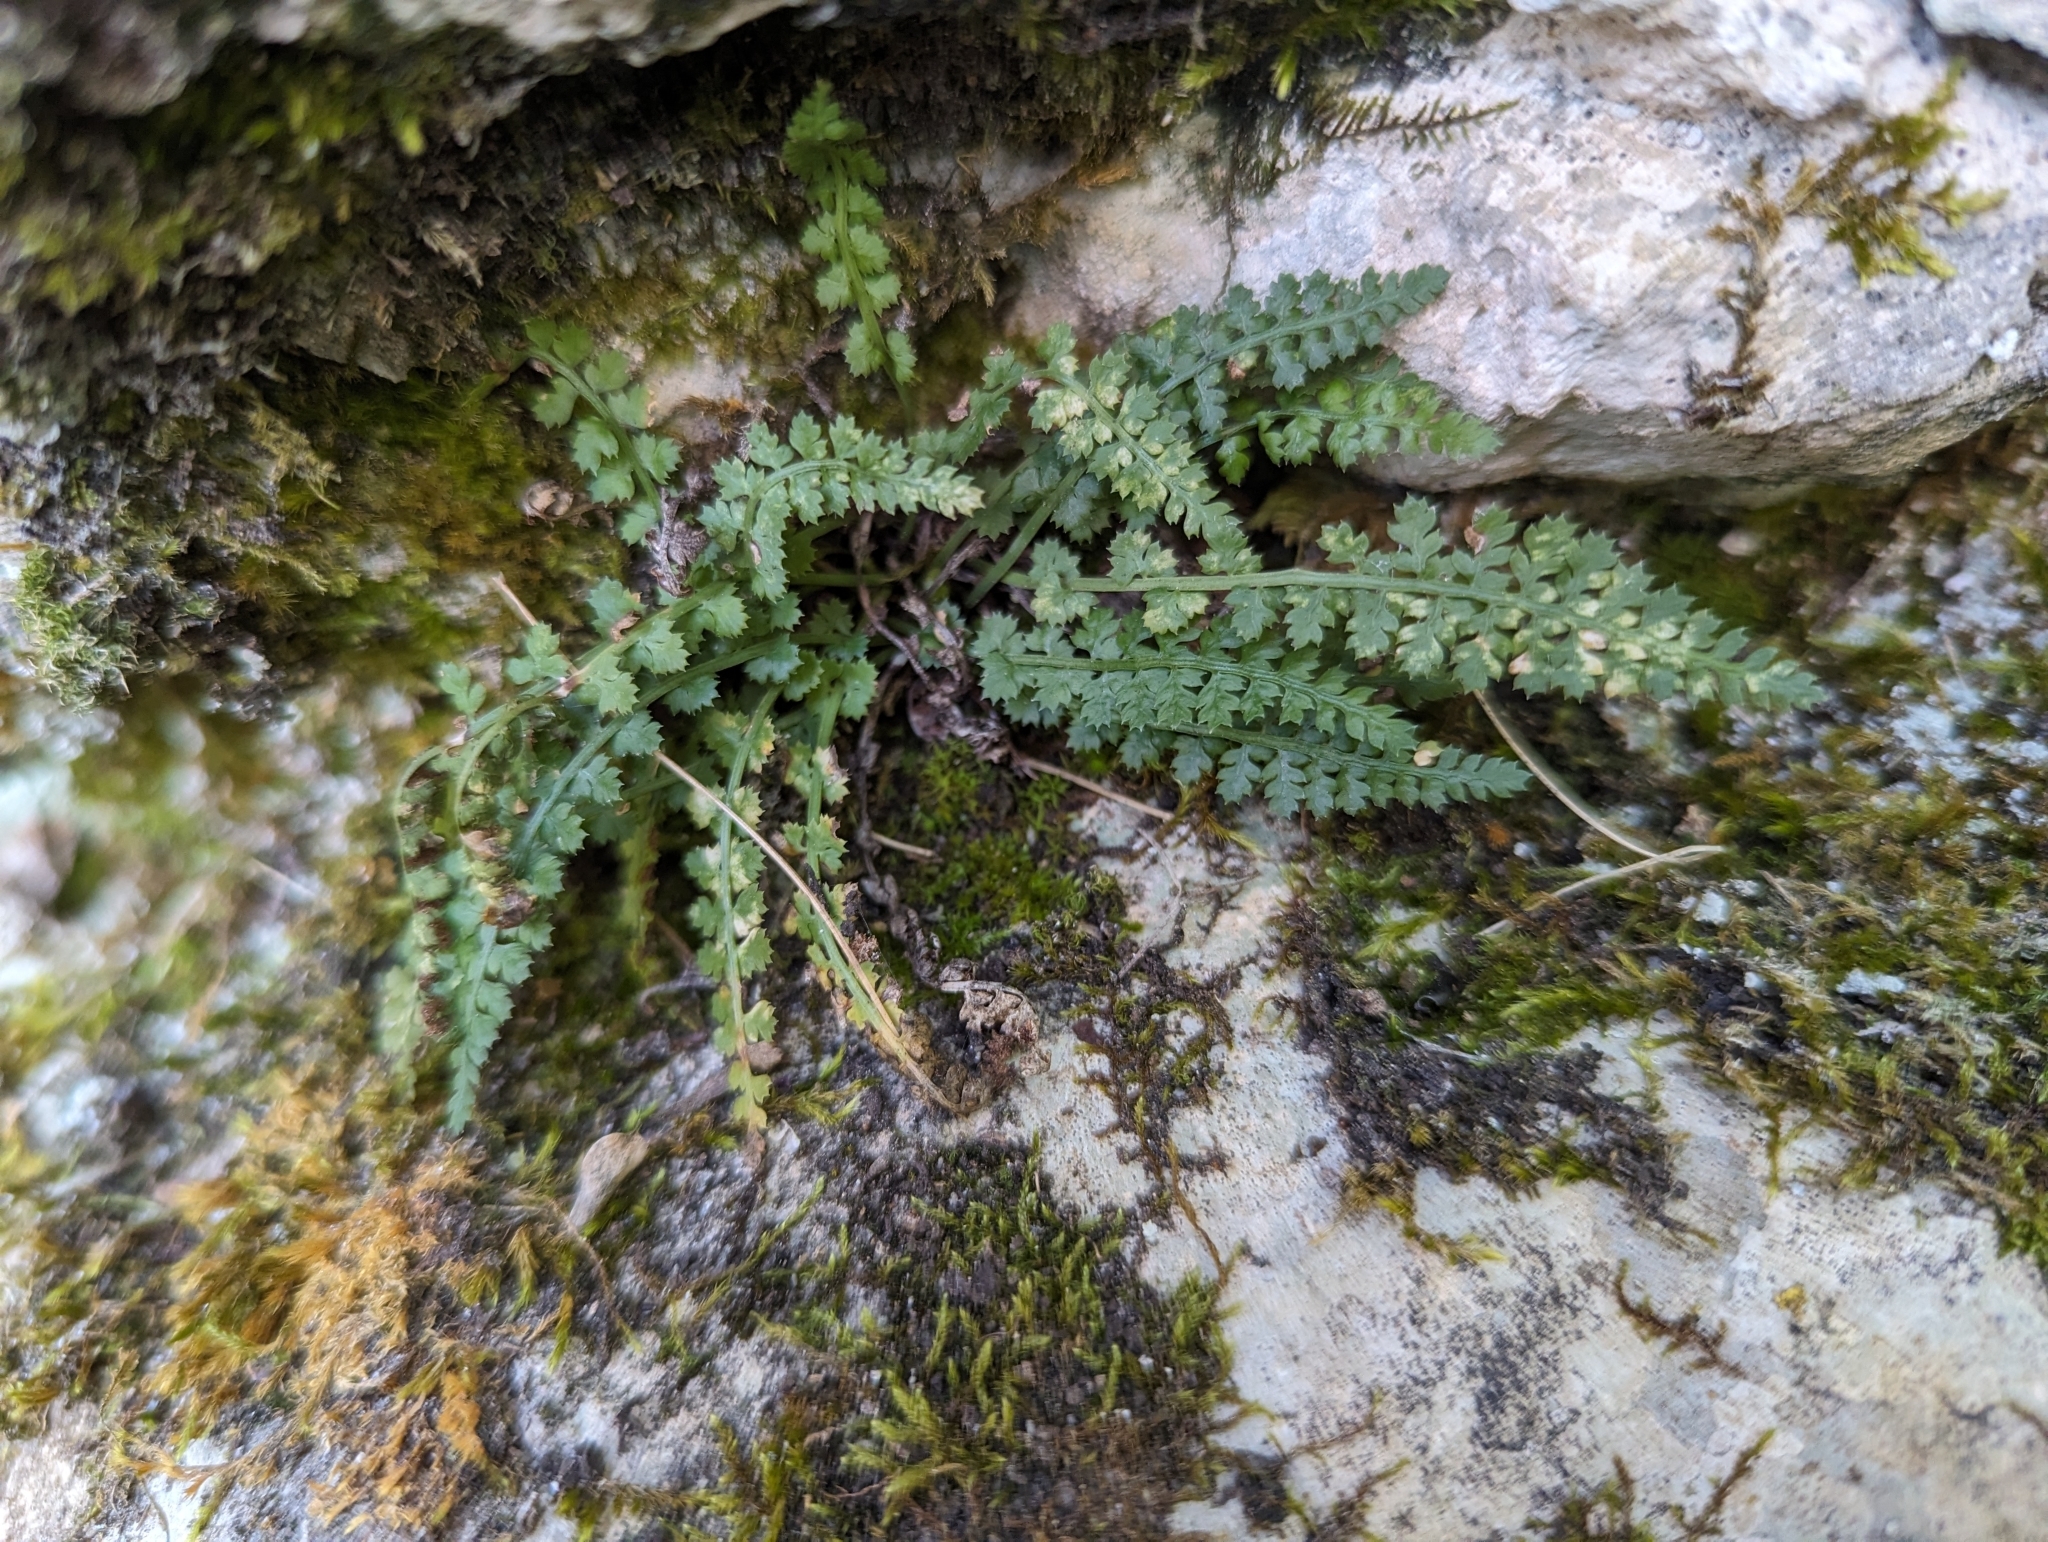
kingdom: Plantae
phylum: Tracheophyta
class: Polypodiopsida
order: Polypodiales
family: Aspleniaceae
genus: Asplenium
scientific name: Asplenium fontanum
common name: Fountain spleenwort
